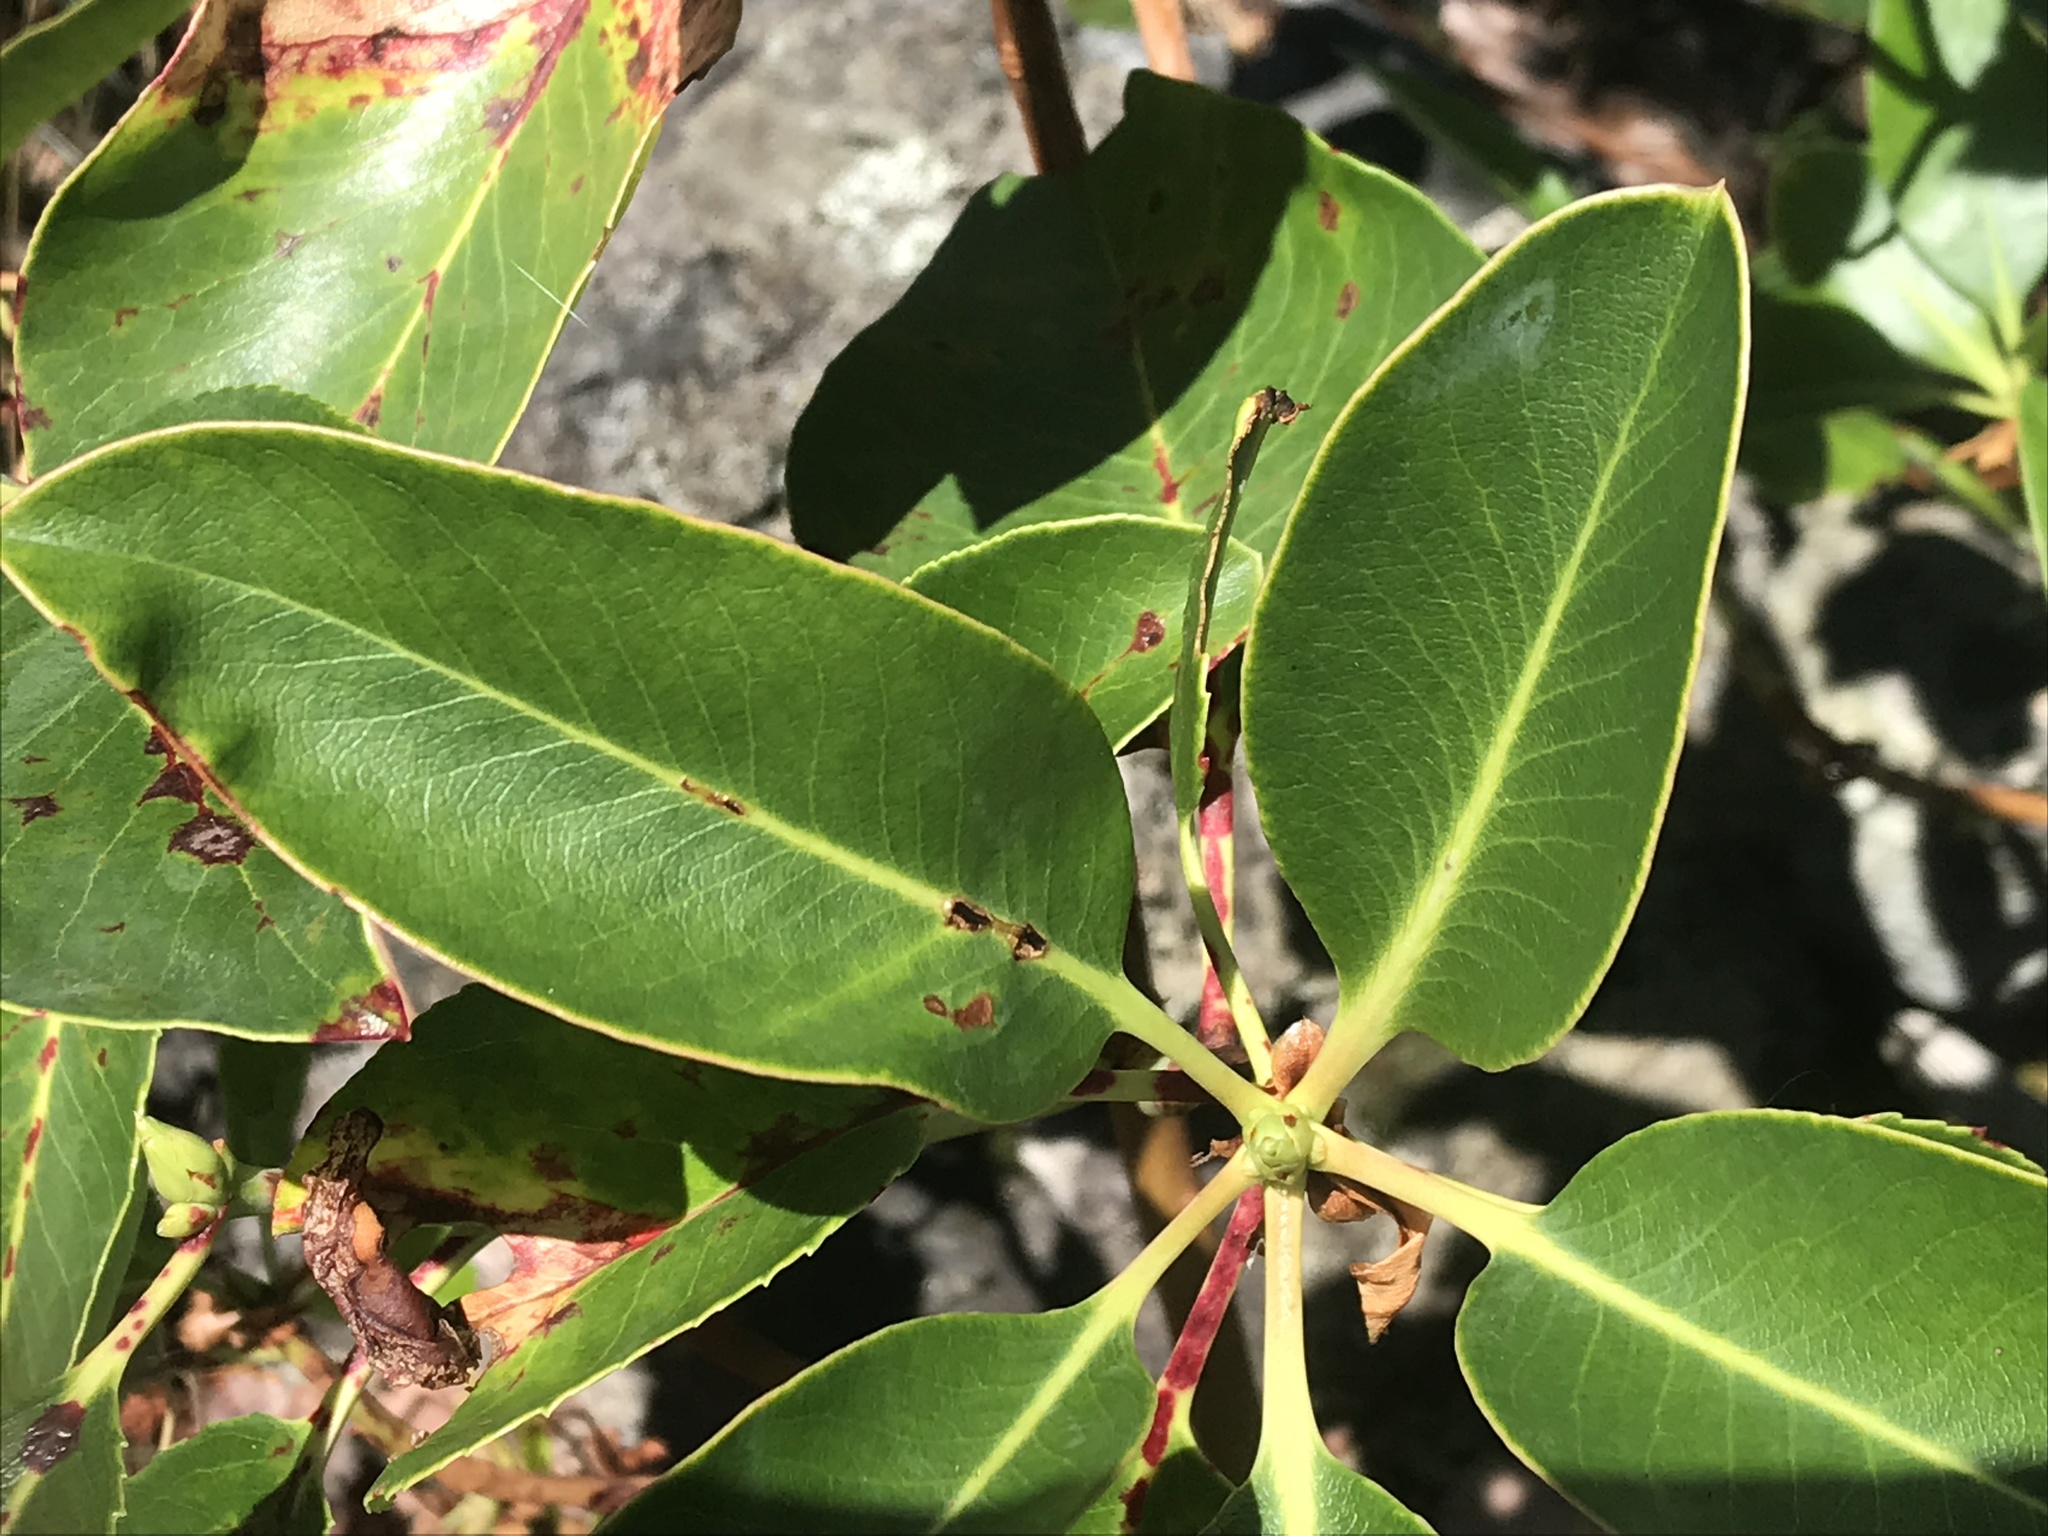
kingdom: Plantae
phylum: Tracheophyta
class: Magnoliopsida
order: Ericales
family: Ericaceae
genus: Arbutus
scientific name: Arbutus menziesii
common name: Pacific madrone
